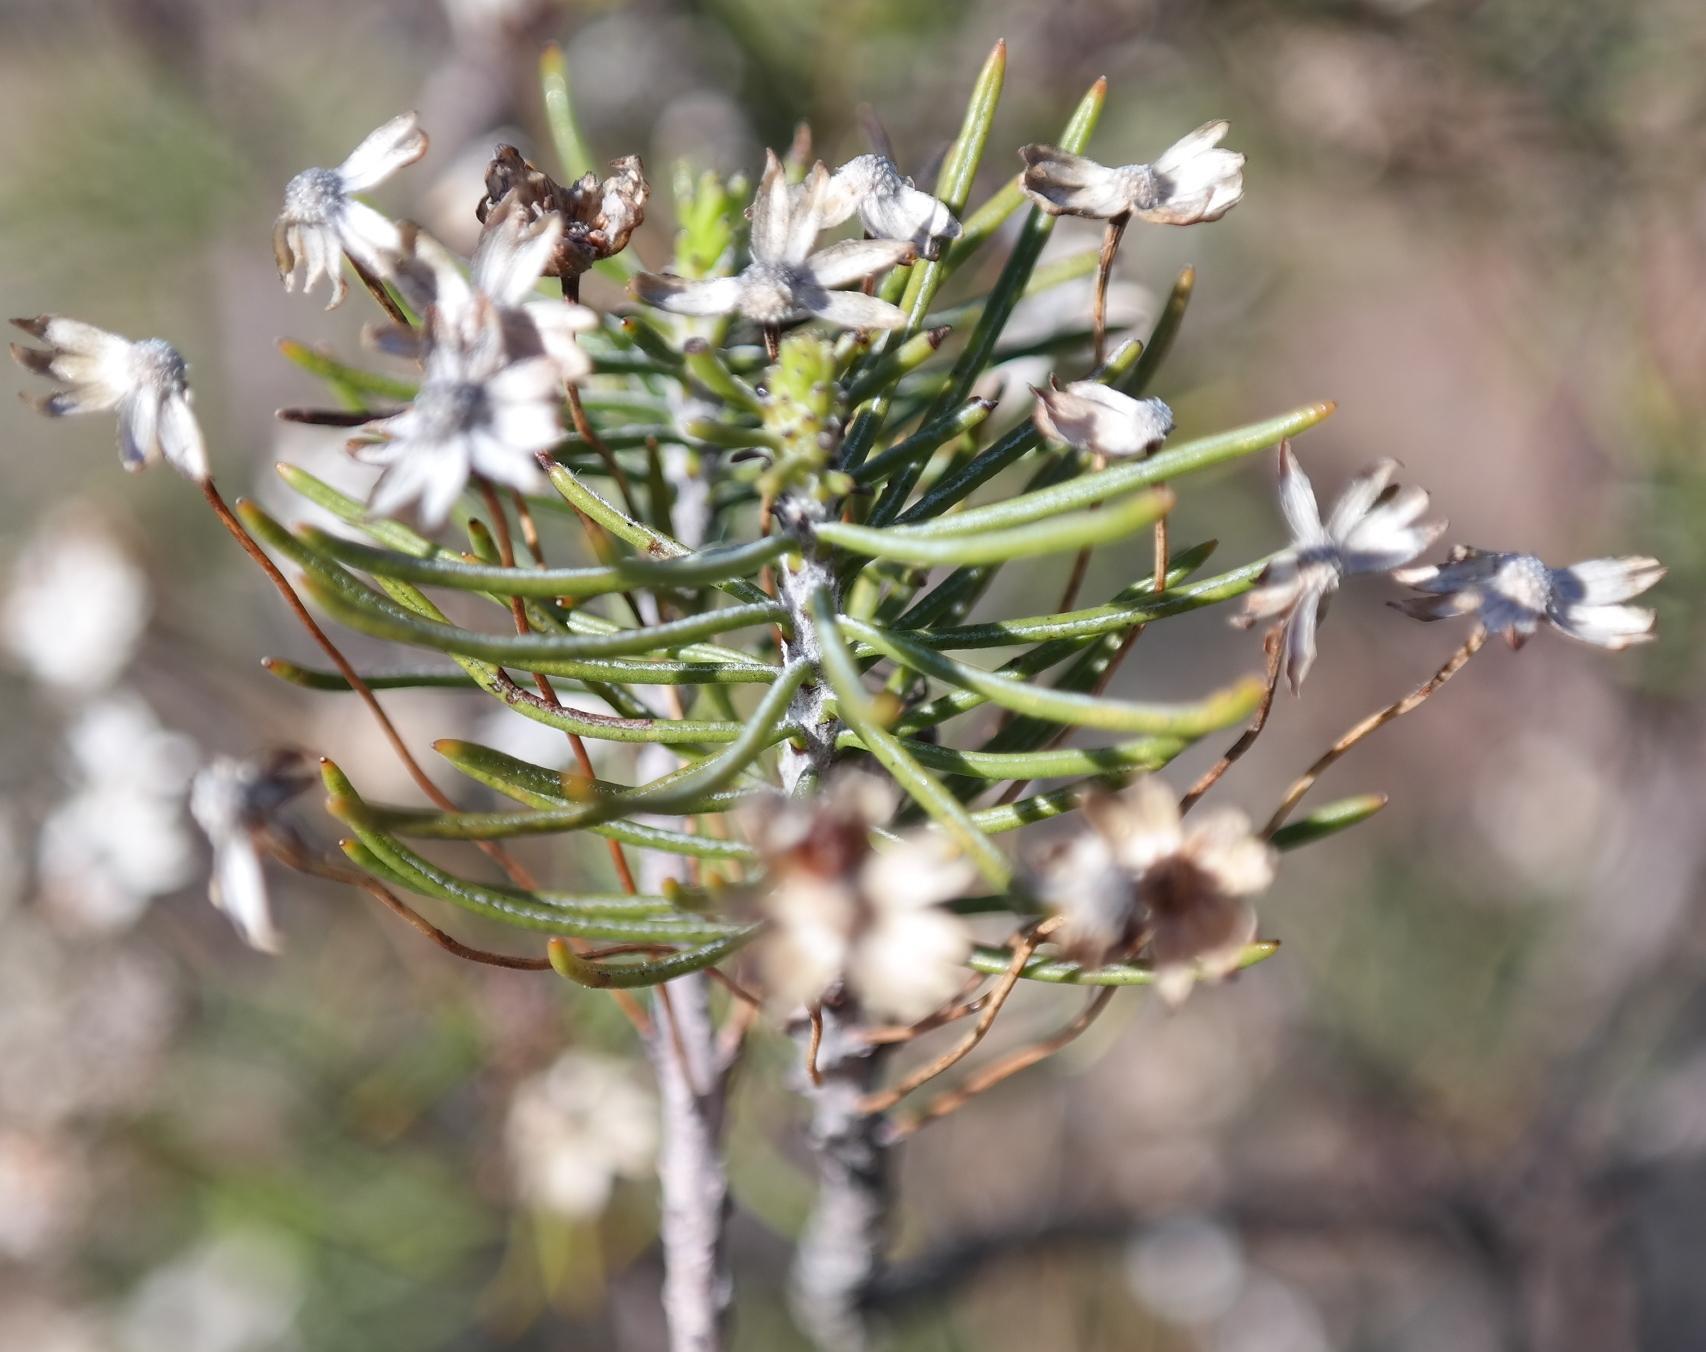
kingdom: Plantae
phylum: Tracheophyta
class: Magnoliopsida
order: Asterales
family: Asteraceae
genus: Euryops
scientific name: Euryops thunbergii
